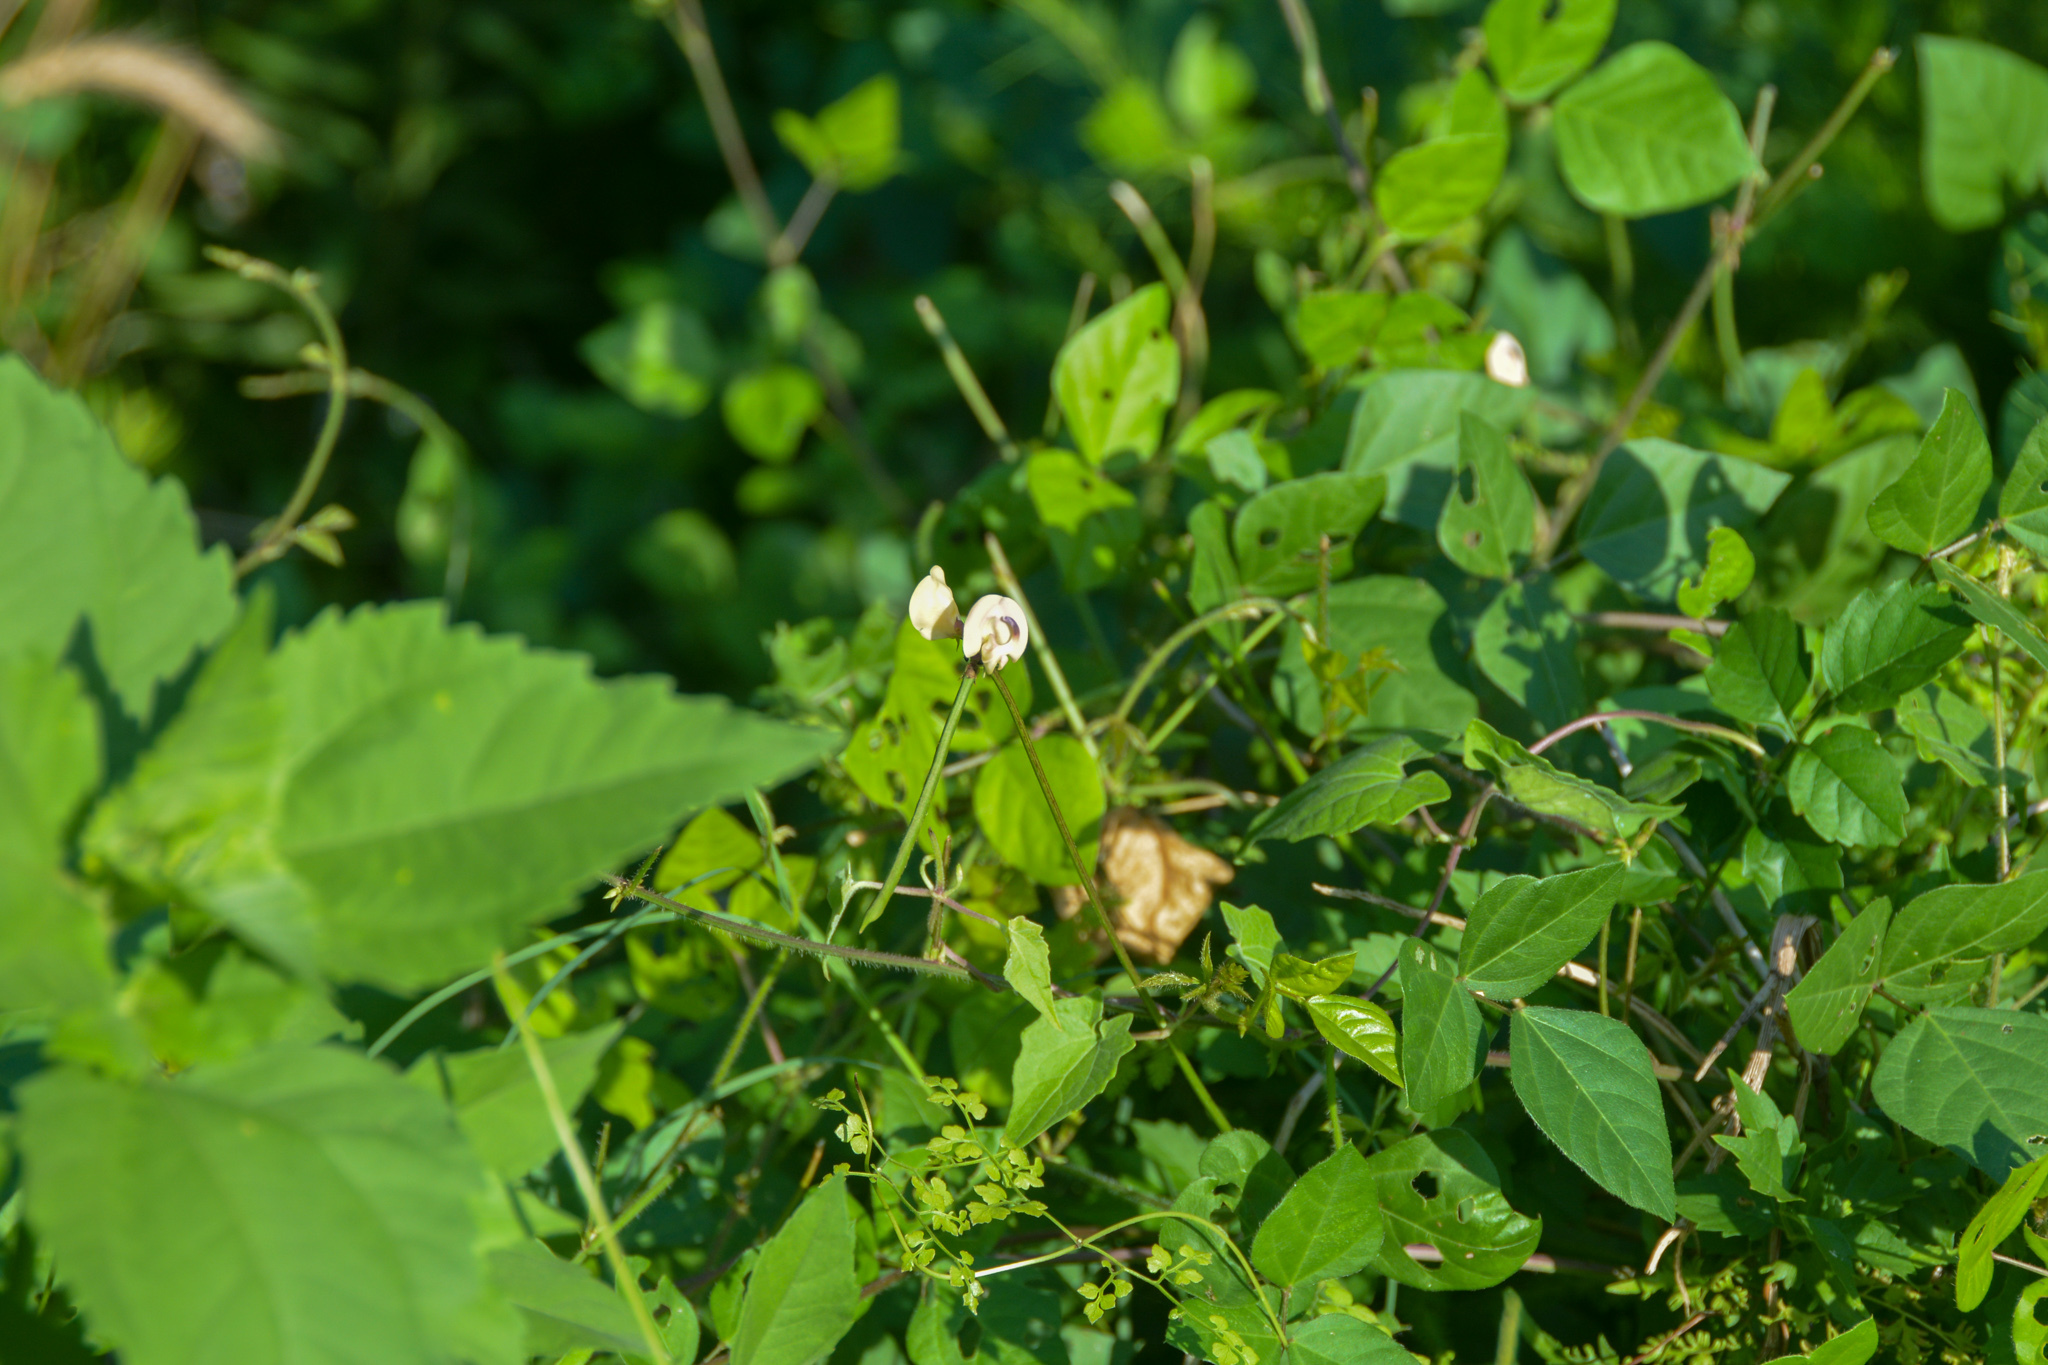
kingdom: Plantae
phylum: Tracheophyta
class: Magnoliopsida
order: Fabales
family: Fabaceae
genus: Strophostyles
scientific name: Strophostyles helvola
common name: Trailing wild bean
